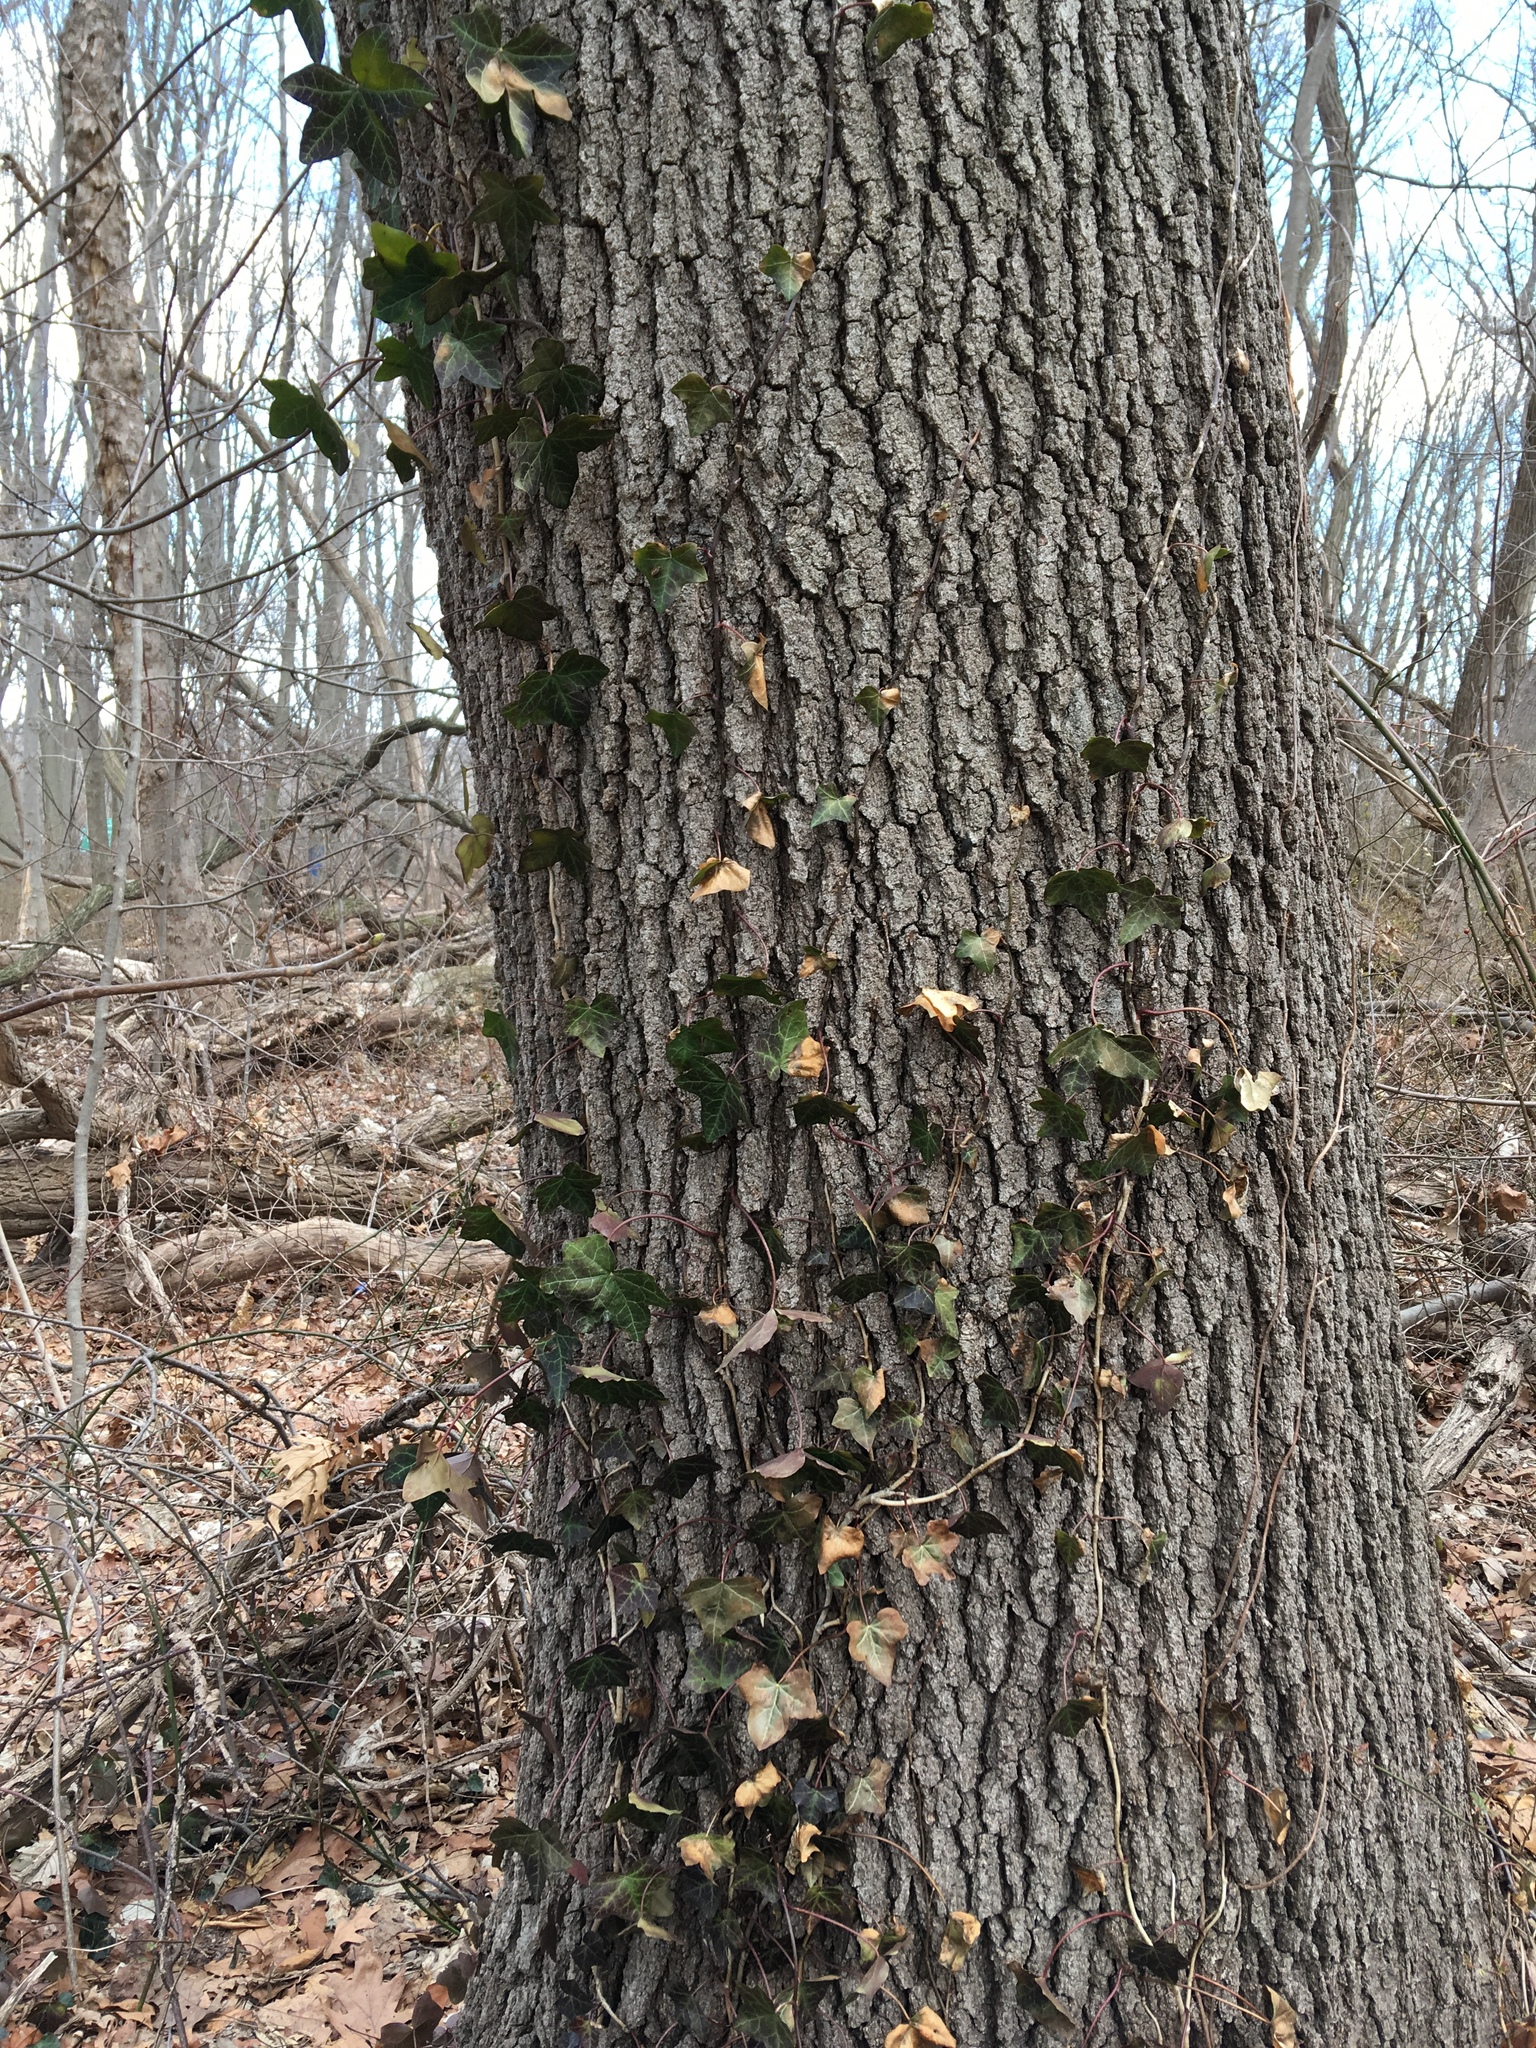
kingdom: Plantae
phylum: Tracheophyta
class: Magnoliopsida
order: Apiales
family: Araliaceae
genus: Hedera
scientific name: Hedera helix
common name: Ivy
